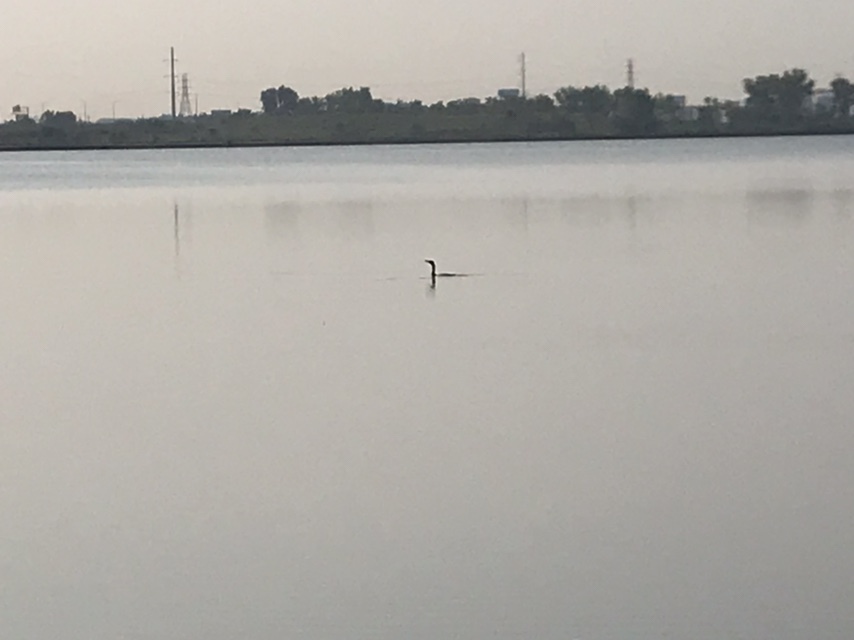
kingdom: Animalia
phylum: Chordata
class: Aves
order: Suliformes
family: Phalacrocoracidae
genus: Phalacrocorax
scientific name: Phalacrocorax auritus
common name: Double-crested cormorant
